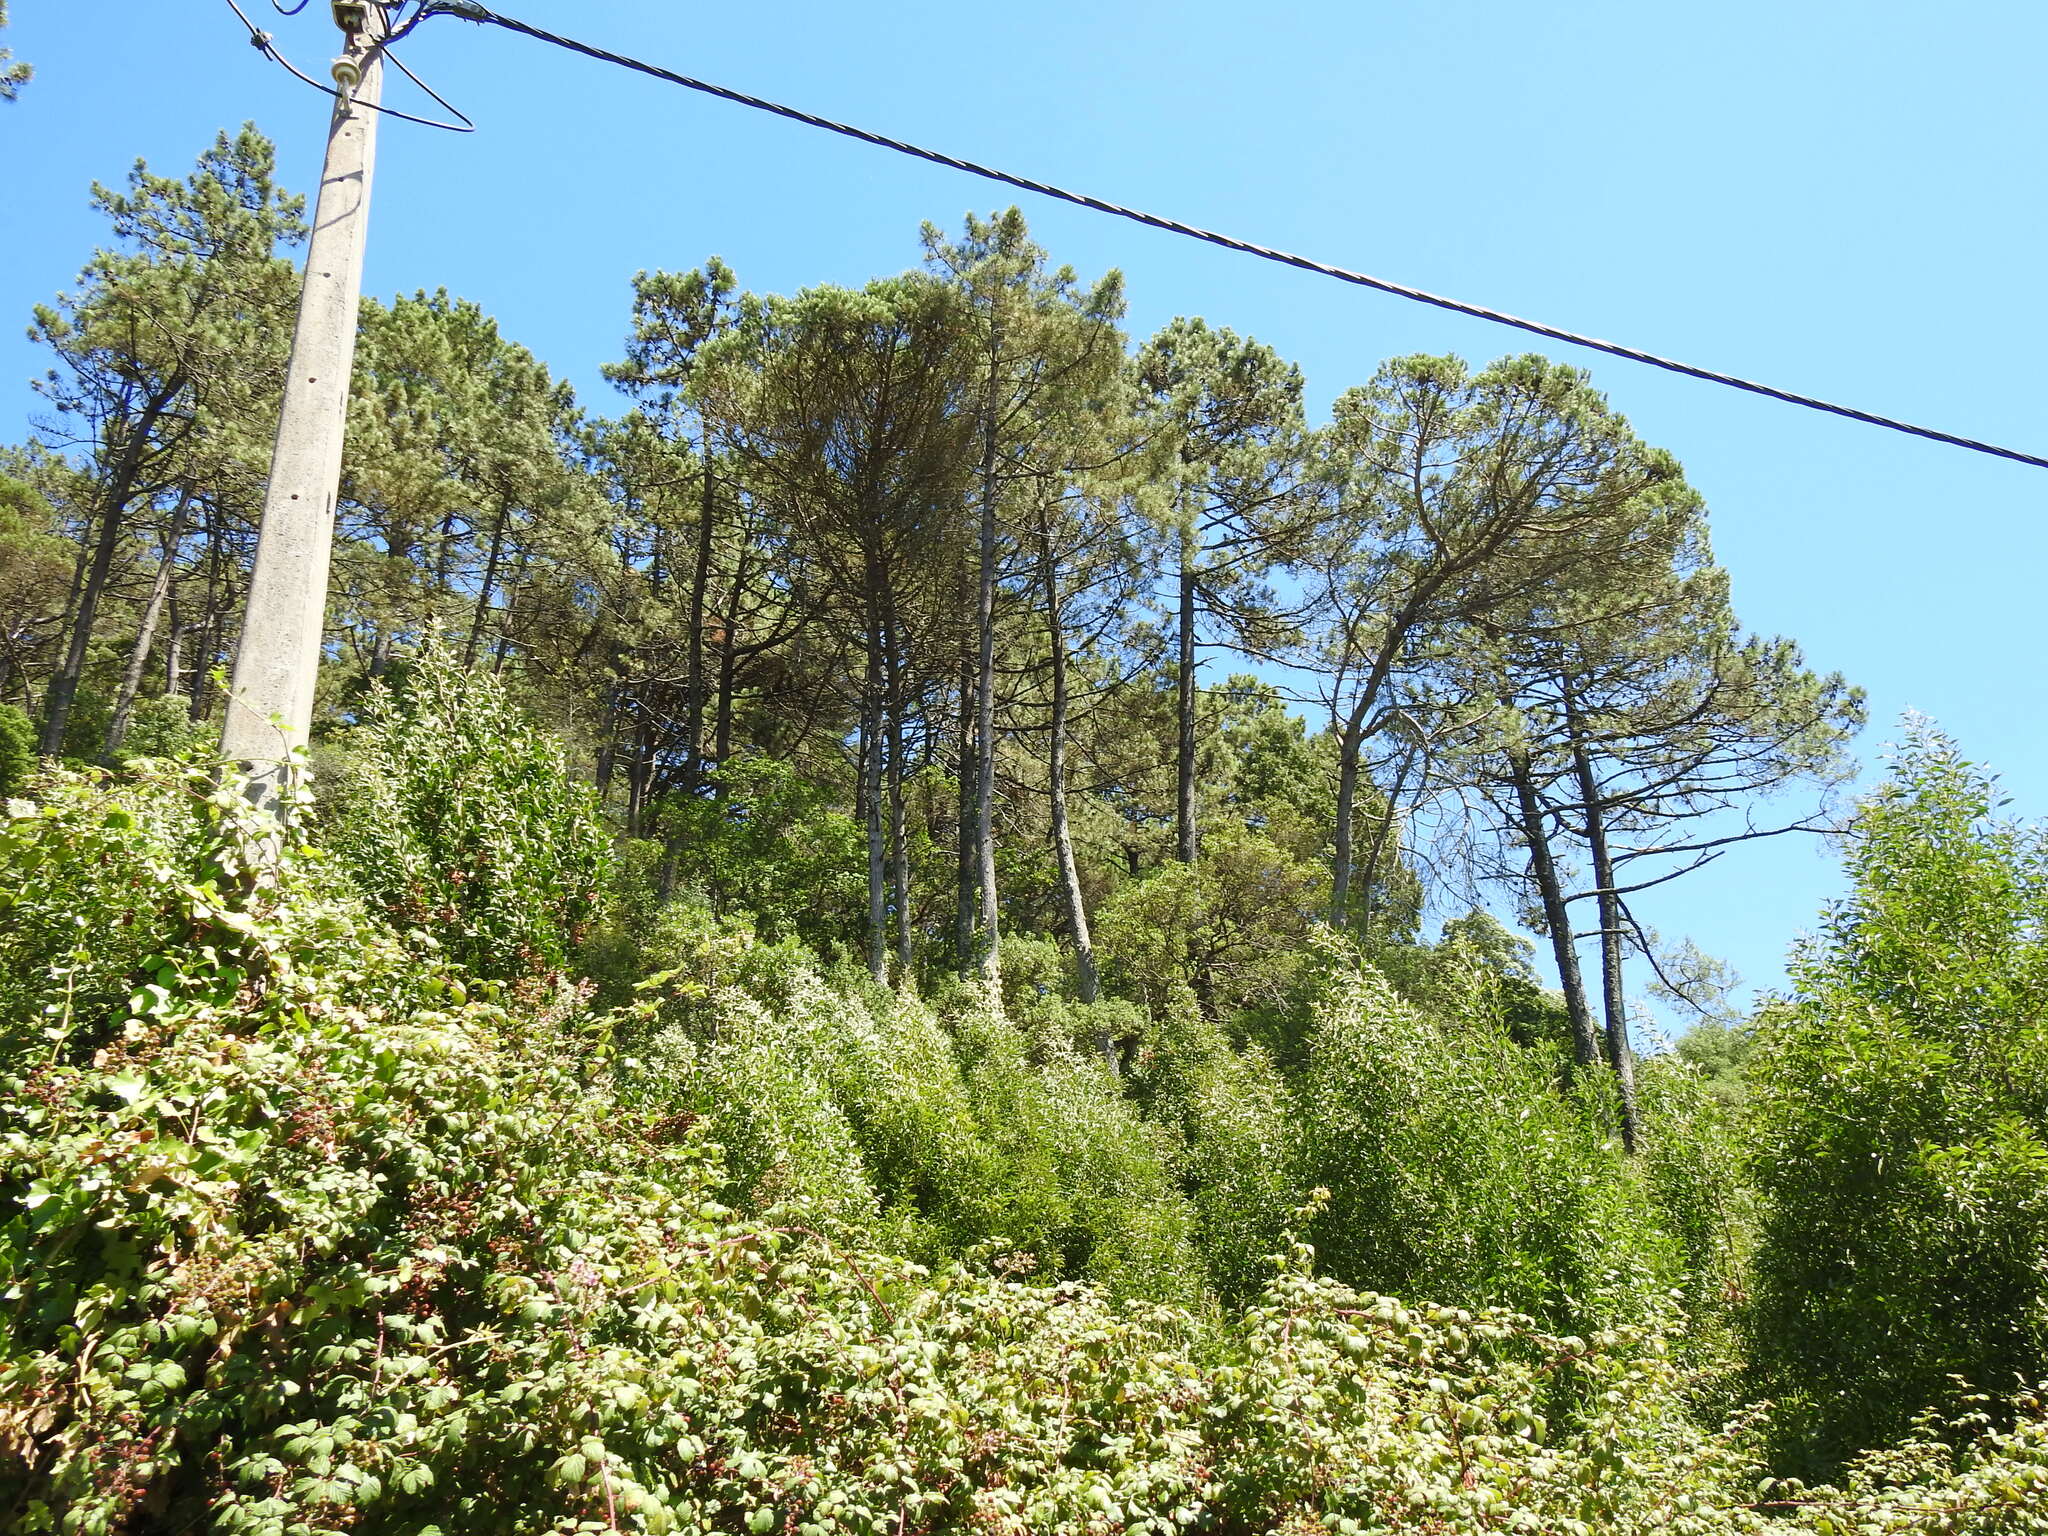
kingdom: Plantae
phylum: Tracheophyta
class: Pinopsida
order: Pinales
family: Pinaceae
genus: Pinus
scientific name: Pinus pinaster
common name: Maritime pine
